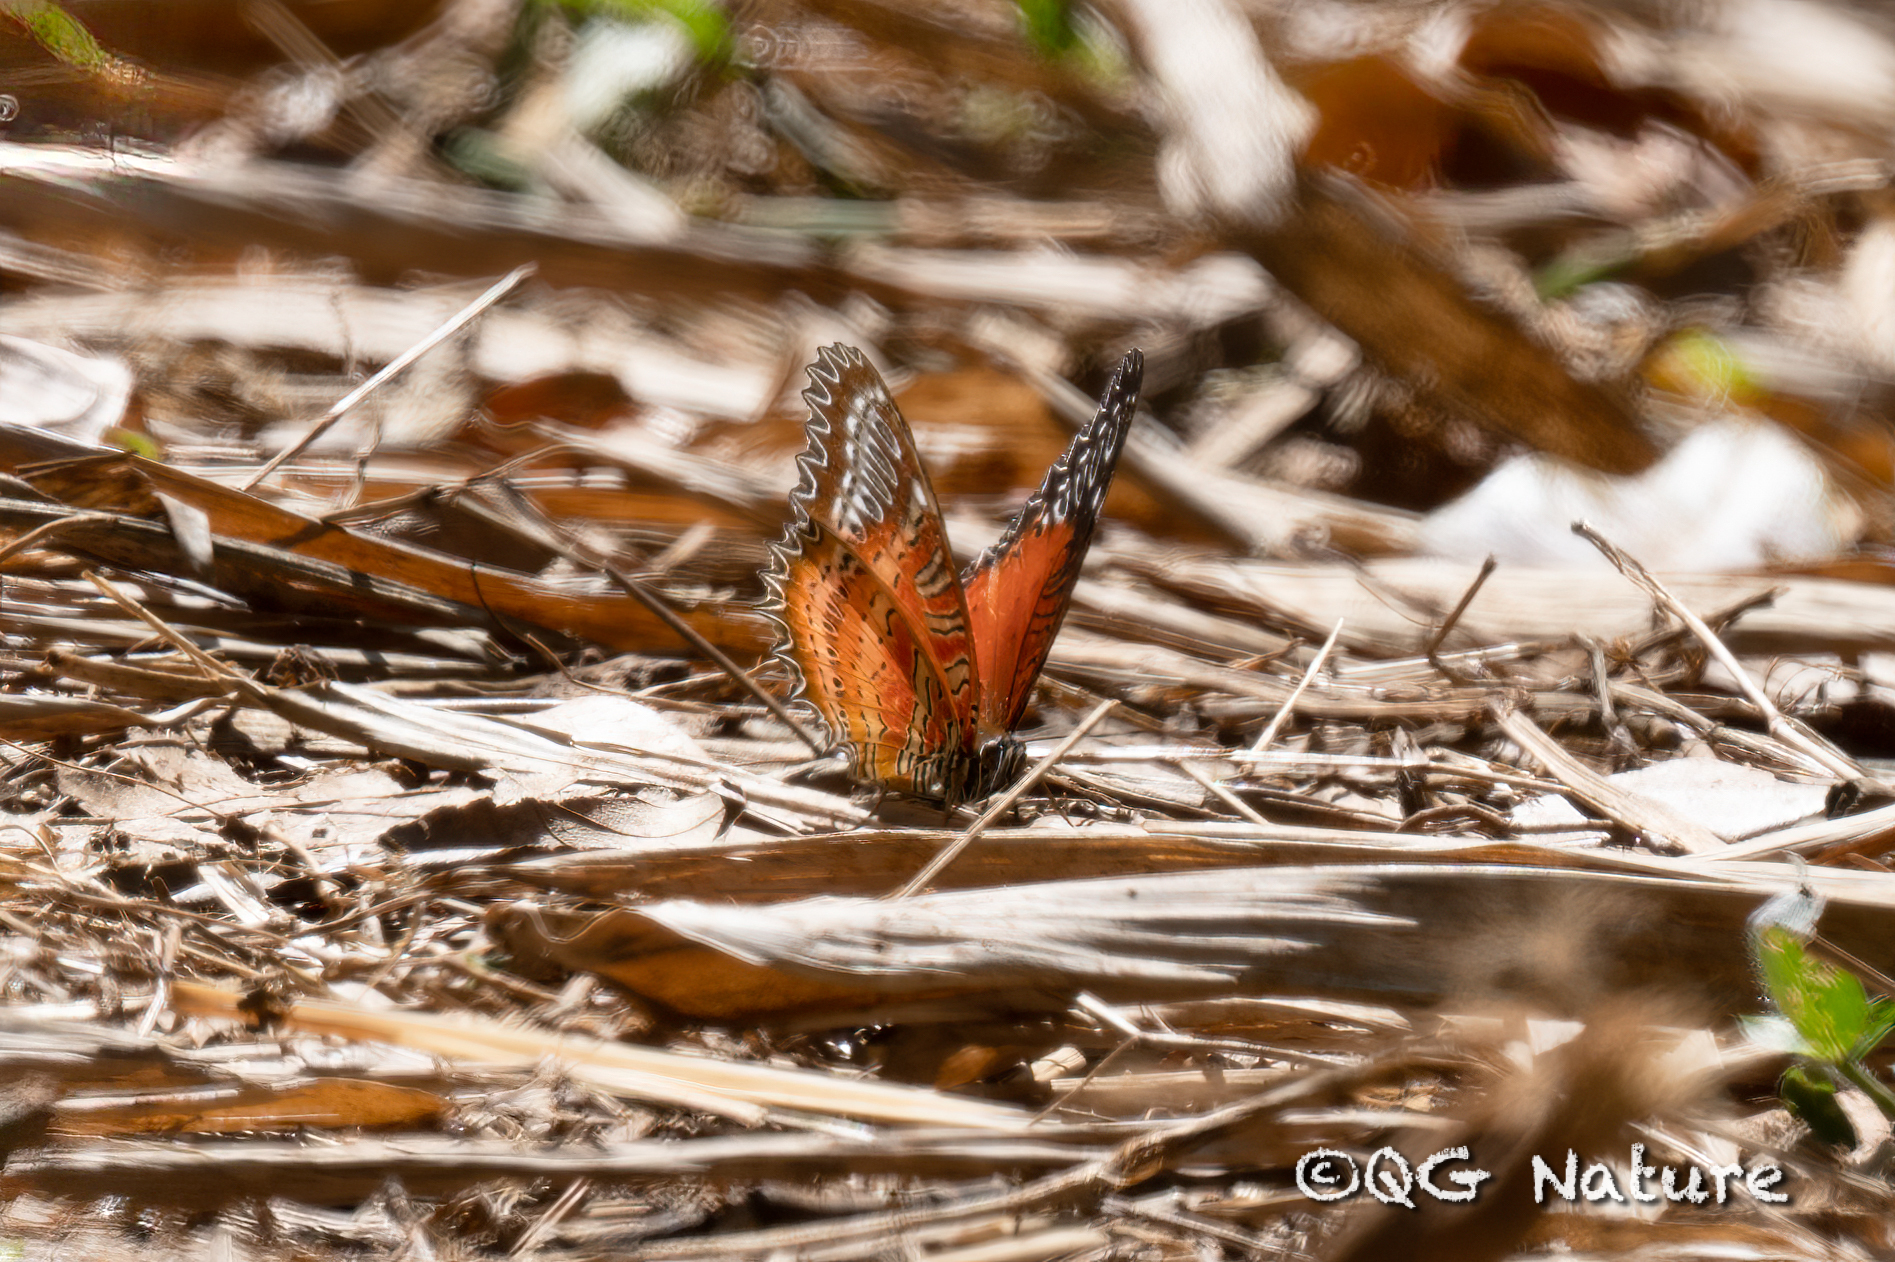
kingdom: Animalia
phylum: Arthropoda
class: Insecta
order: Lepidoptera
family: Nymphalidae
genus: Cethosia
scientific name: Cethosia biblis
